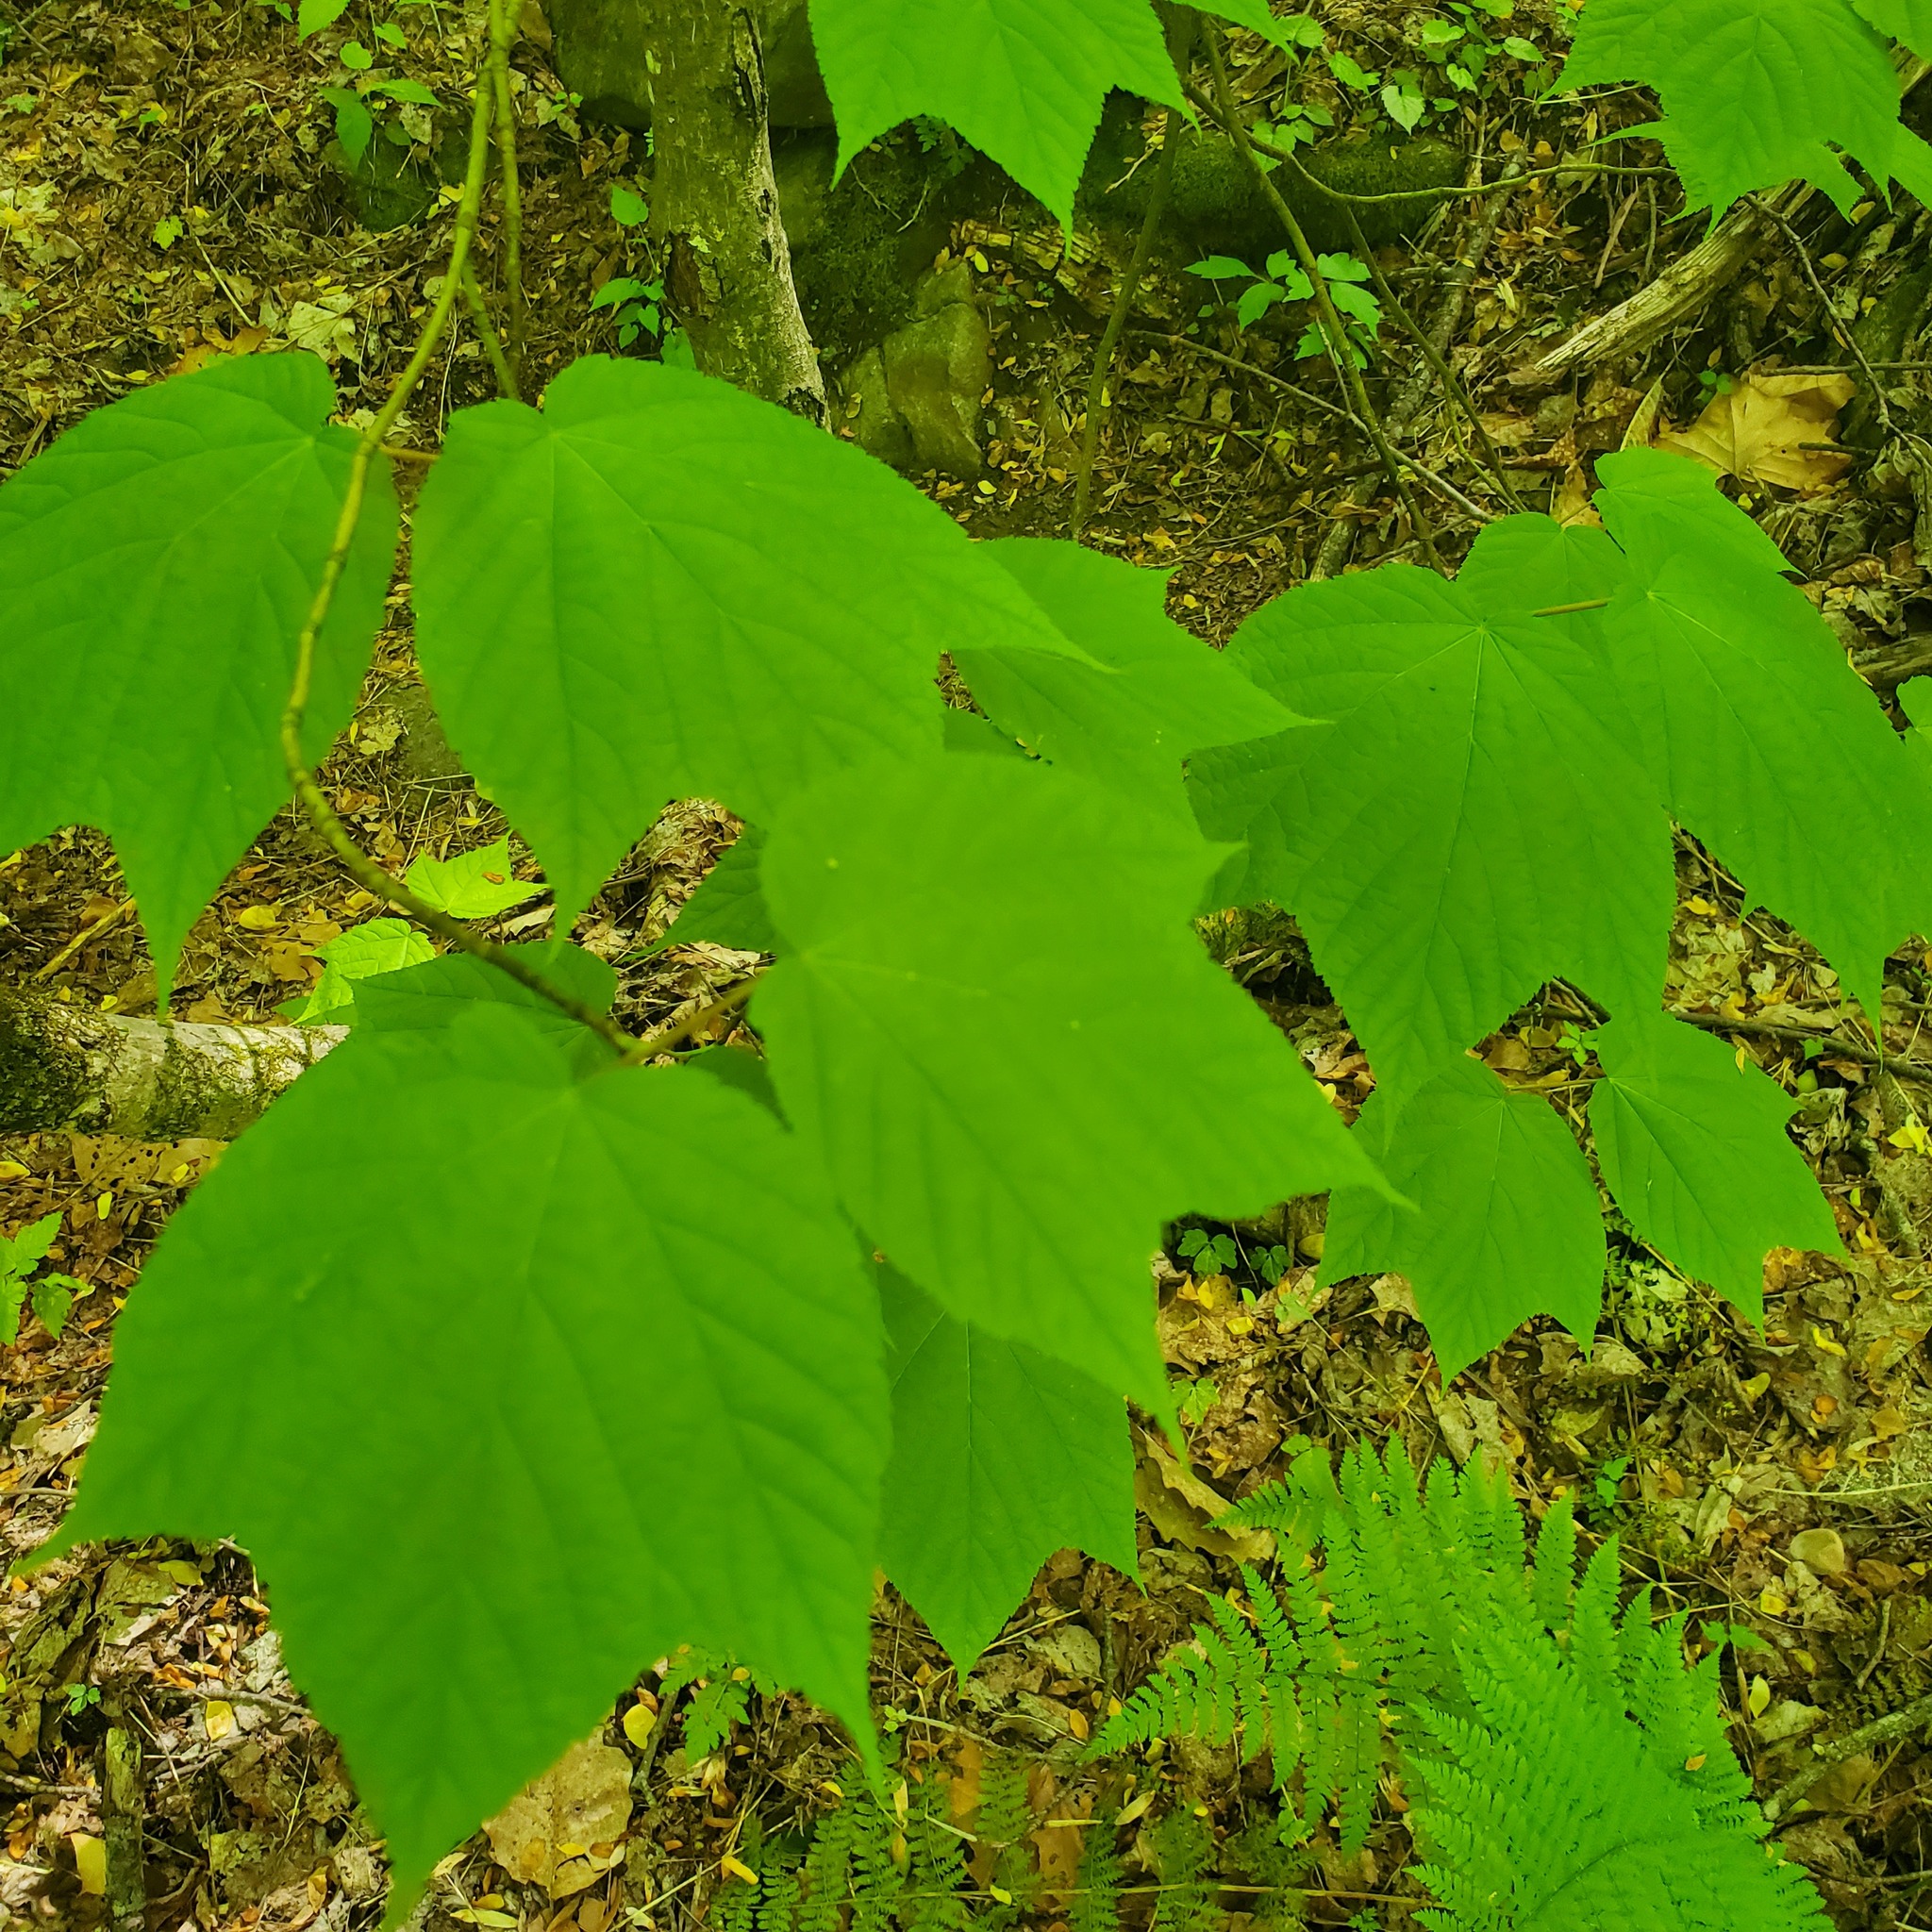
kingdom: Plantae
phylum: Tracheophyta
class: Magnoliopsida
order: Sapindales
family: Sapindaceae
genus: Acer
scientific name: Acer pensylvanicum
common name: Moosewood
